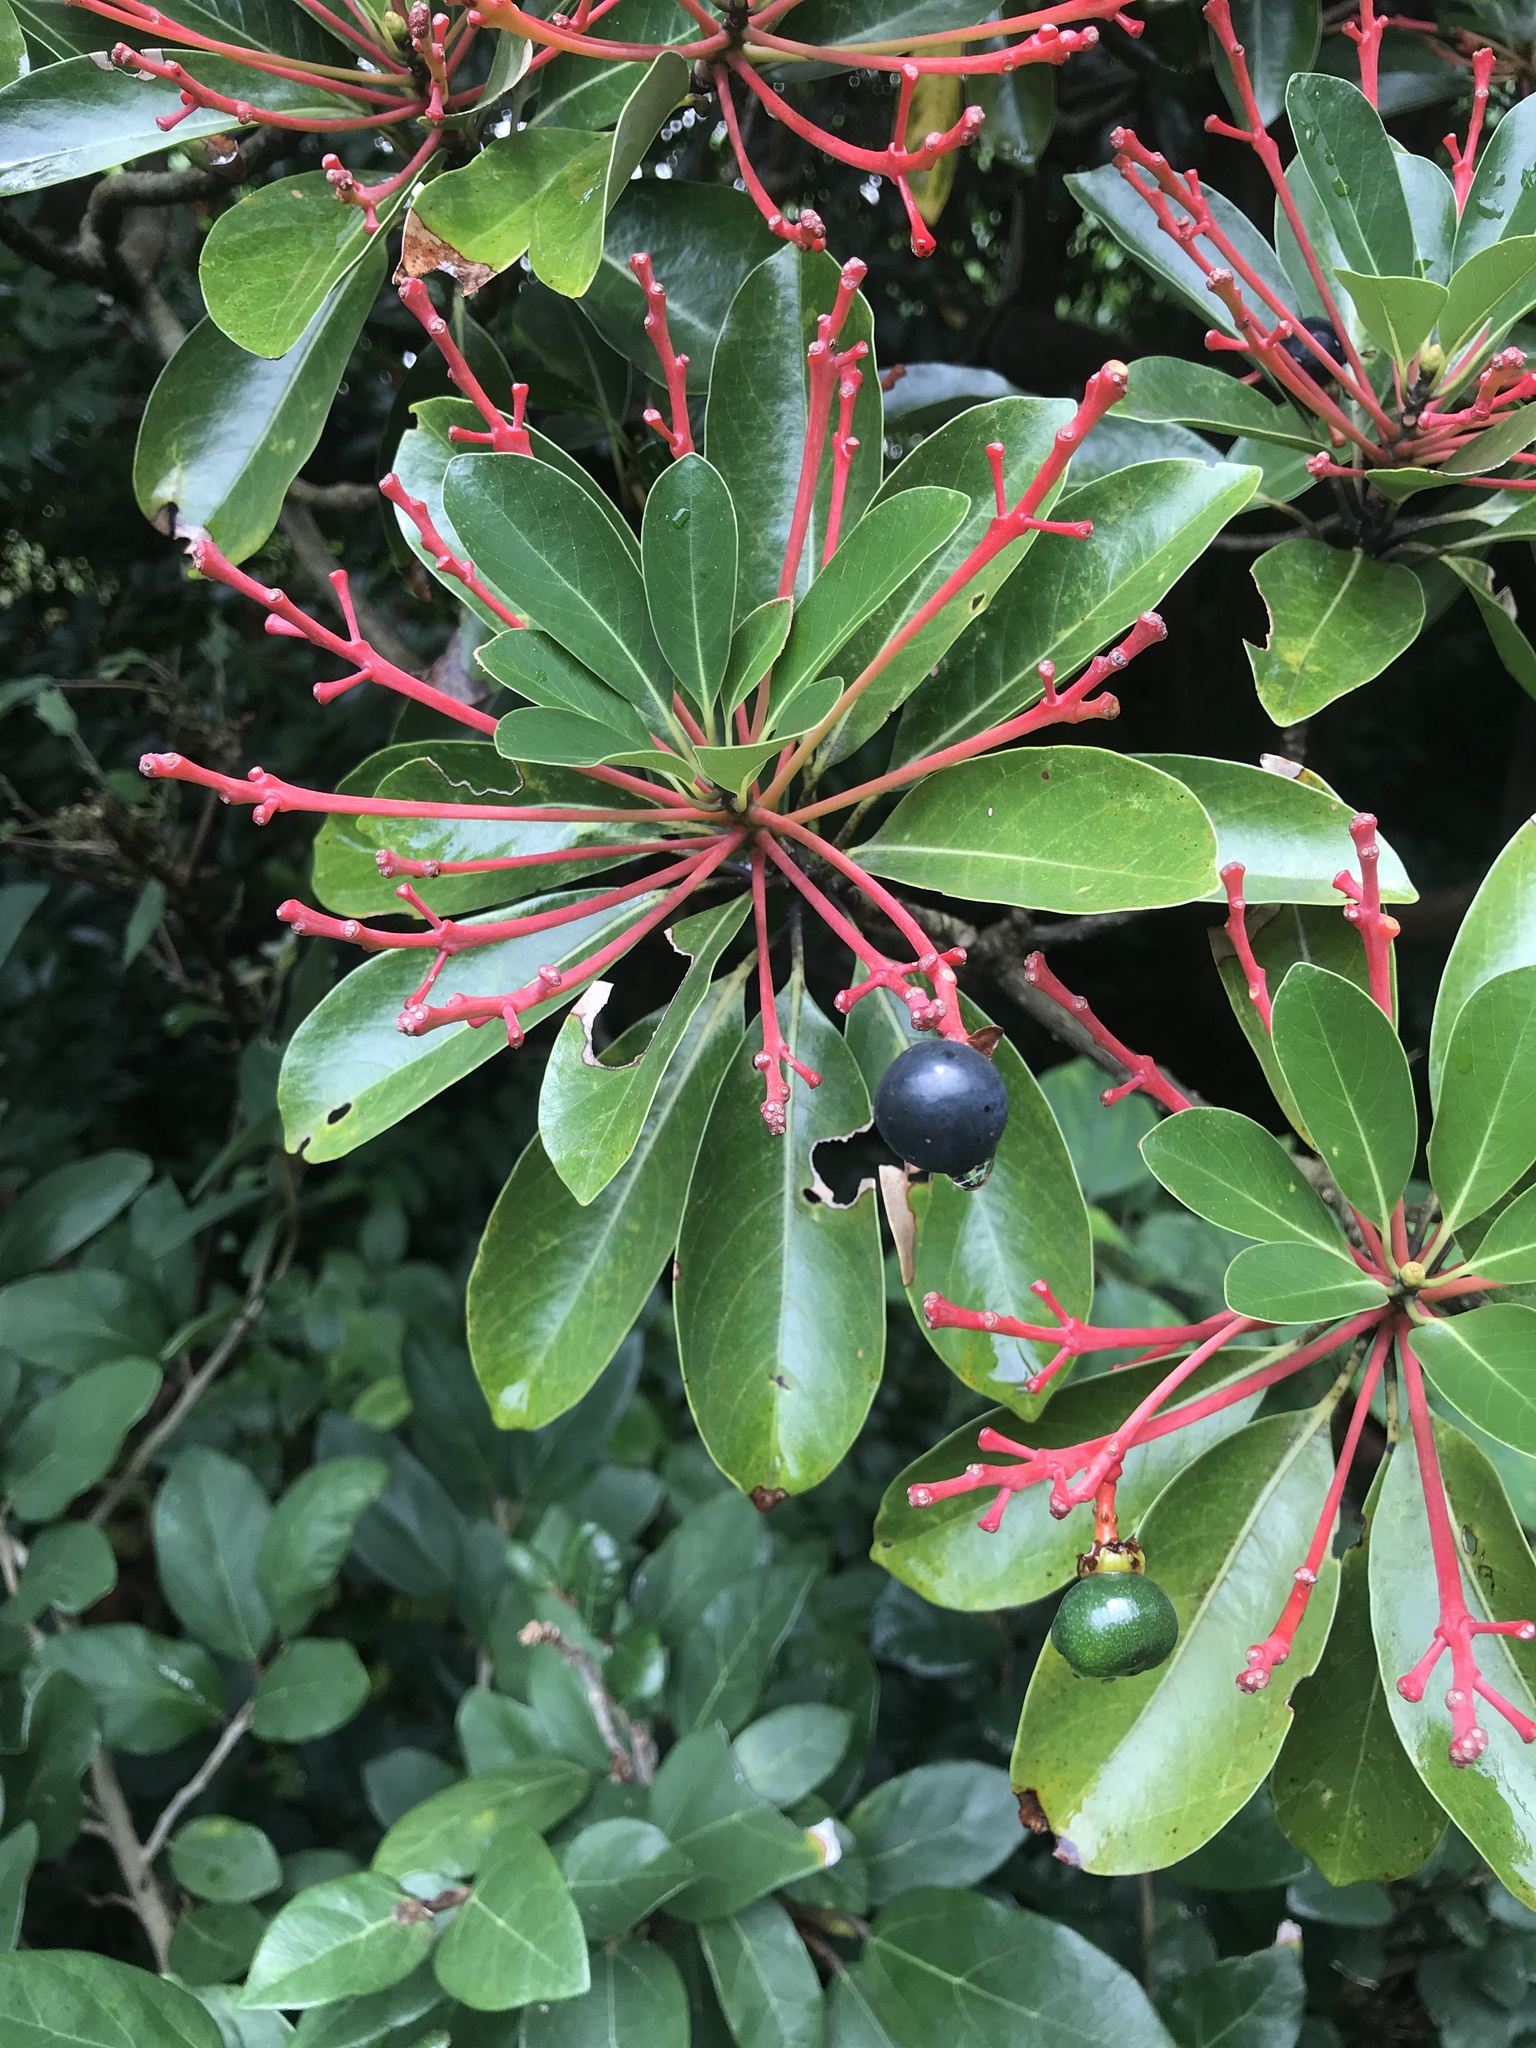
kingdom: Plantae
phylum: Tracheophyta
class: Magnoliopsida
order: Laurales
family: Lauraceae
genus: Machilus
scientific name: Machilus thunbergii
